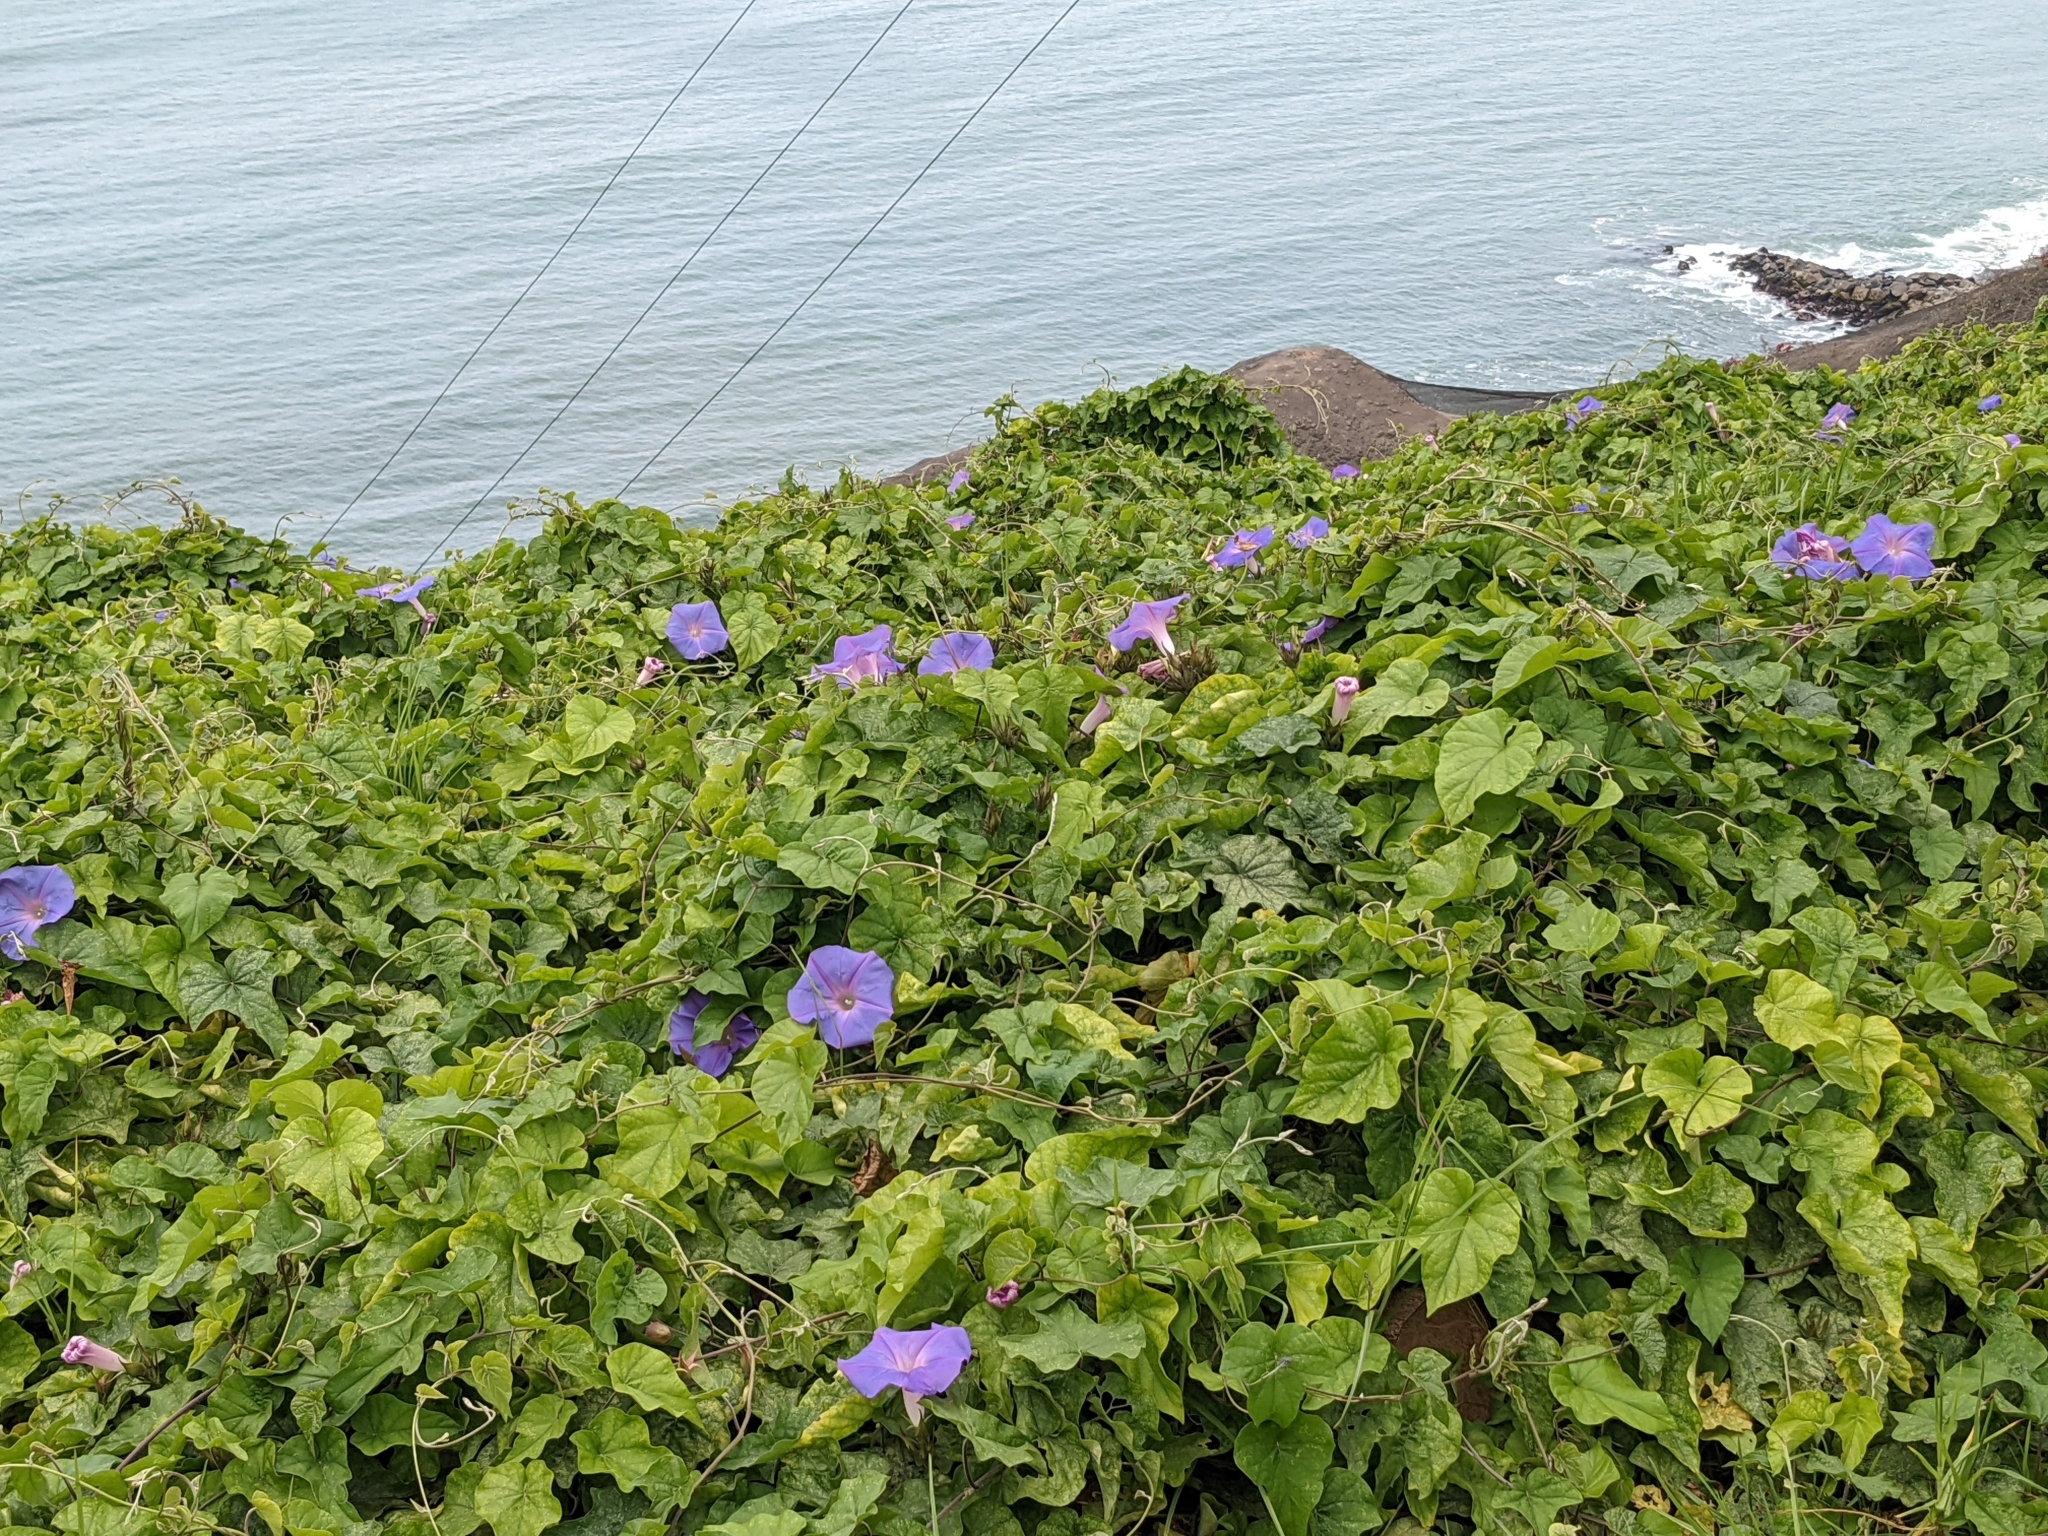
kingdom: Plantae
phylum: Tracheophyta
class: Magnoliopsida
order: Solanales
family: Convolvulaceae
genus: Ipomoea
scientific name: Ipomoea indica
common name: Blue dawnflower
